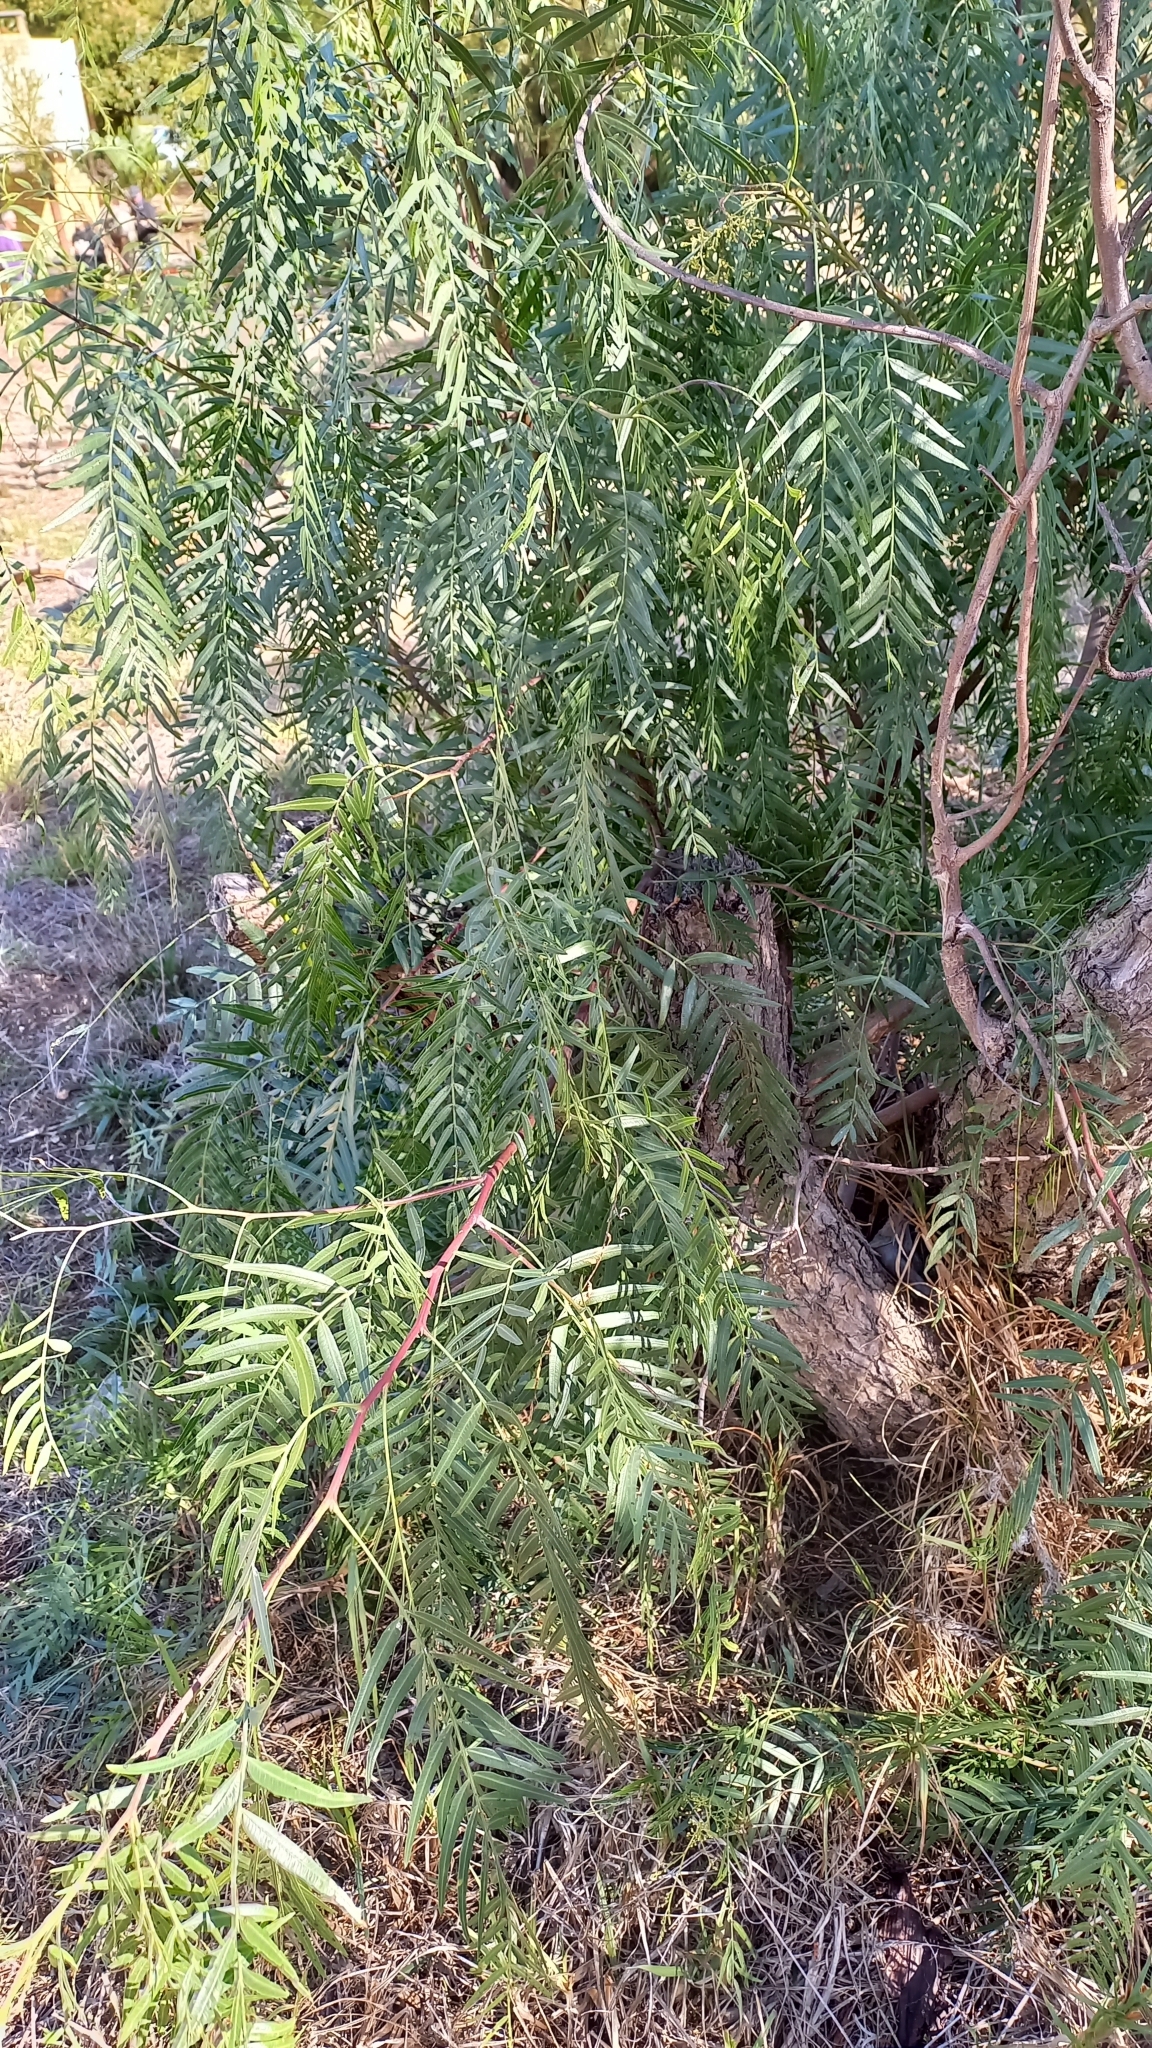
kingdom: Plantae
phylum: Tracheophyta
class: Magnoliopsida
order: Sapindales
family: Anacardiaceae
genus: Schinus
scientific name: Schinus molle
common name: Peruvian peppertree
